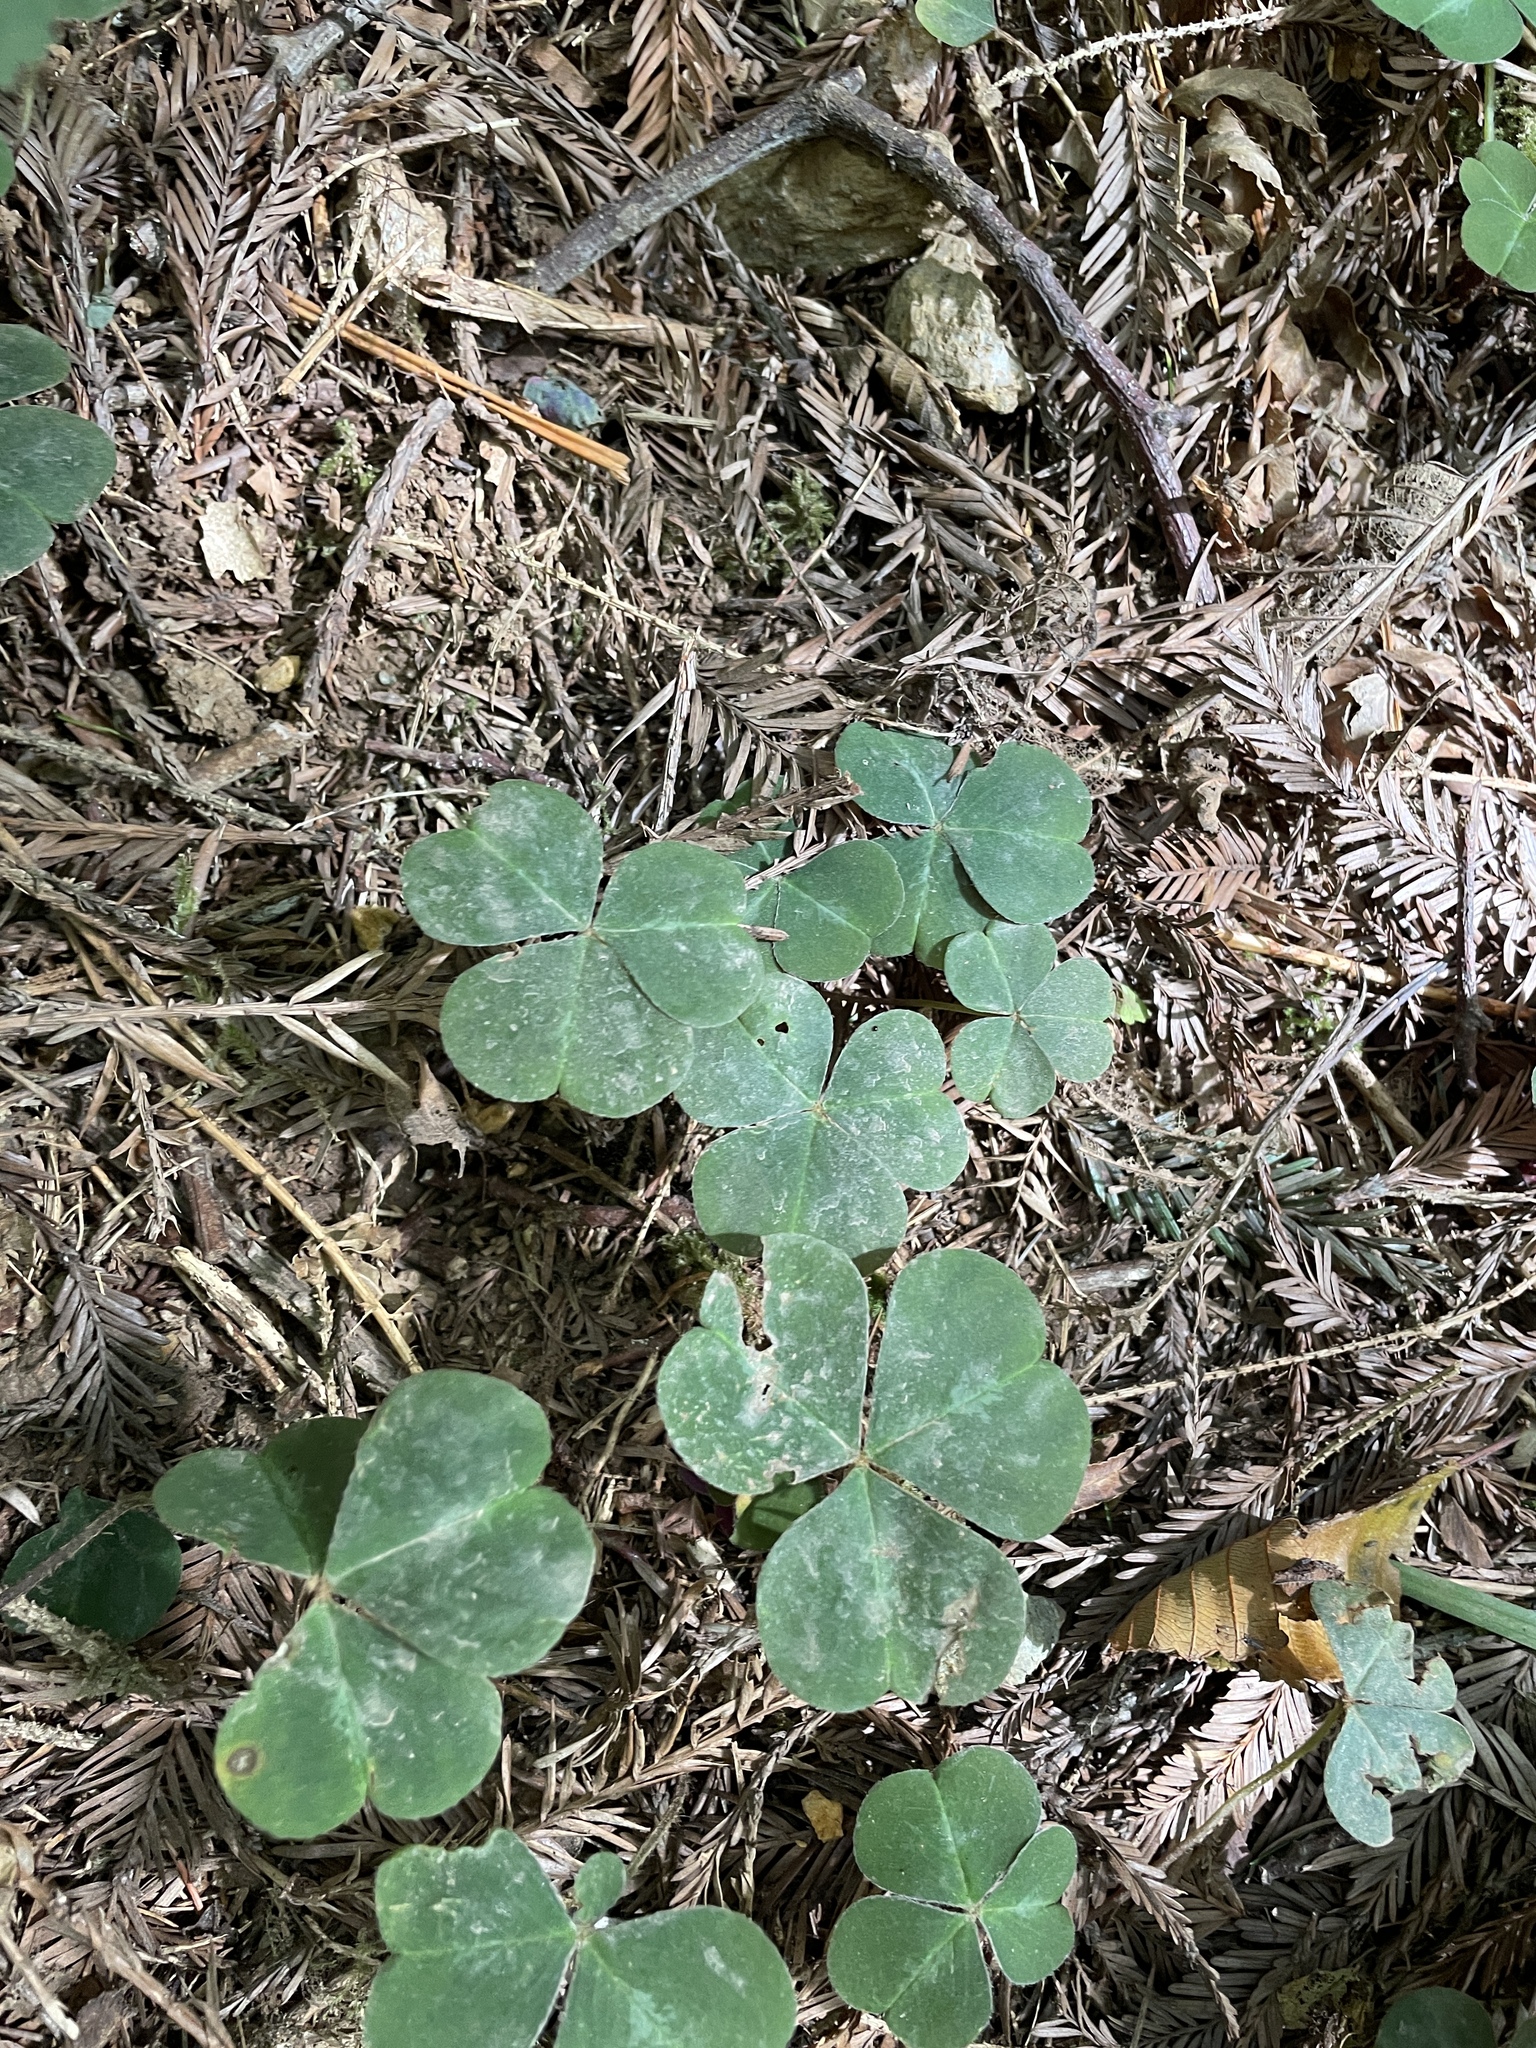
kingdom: Plantae
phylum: Tracheophyta
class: Magnoliopsida
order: Oxalidales
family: Oxalidaceae
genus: Oxalis
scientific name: Oxalis oregana
